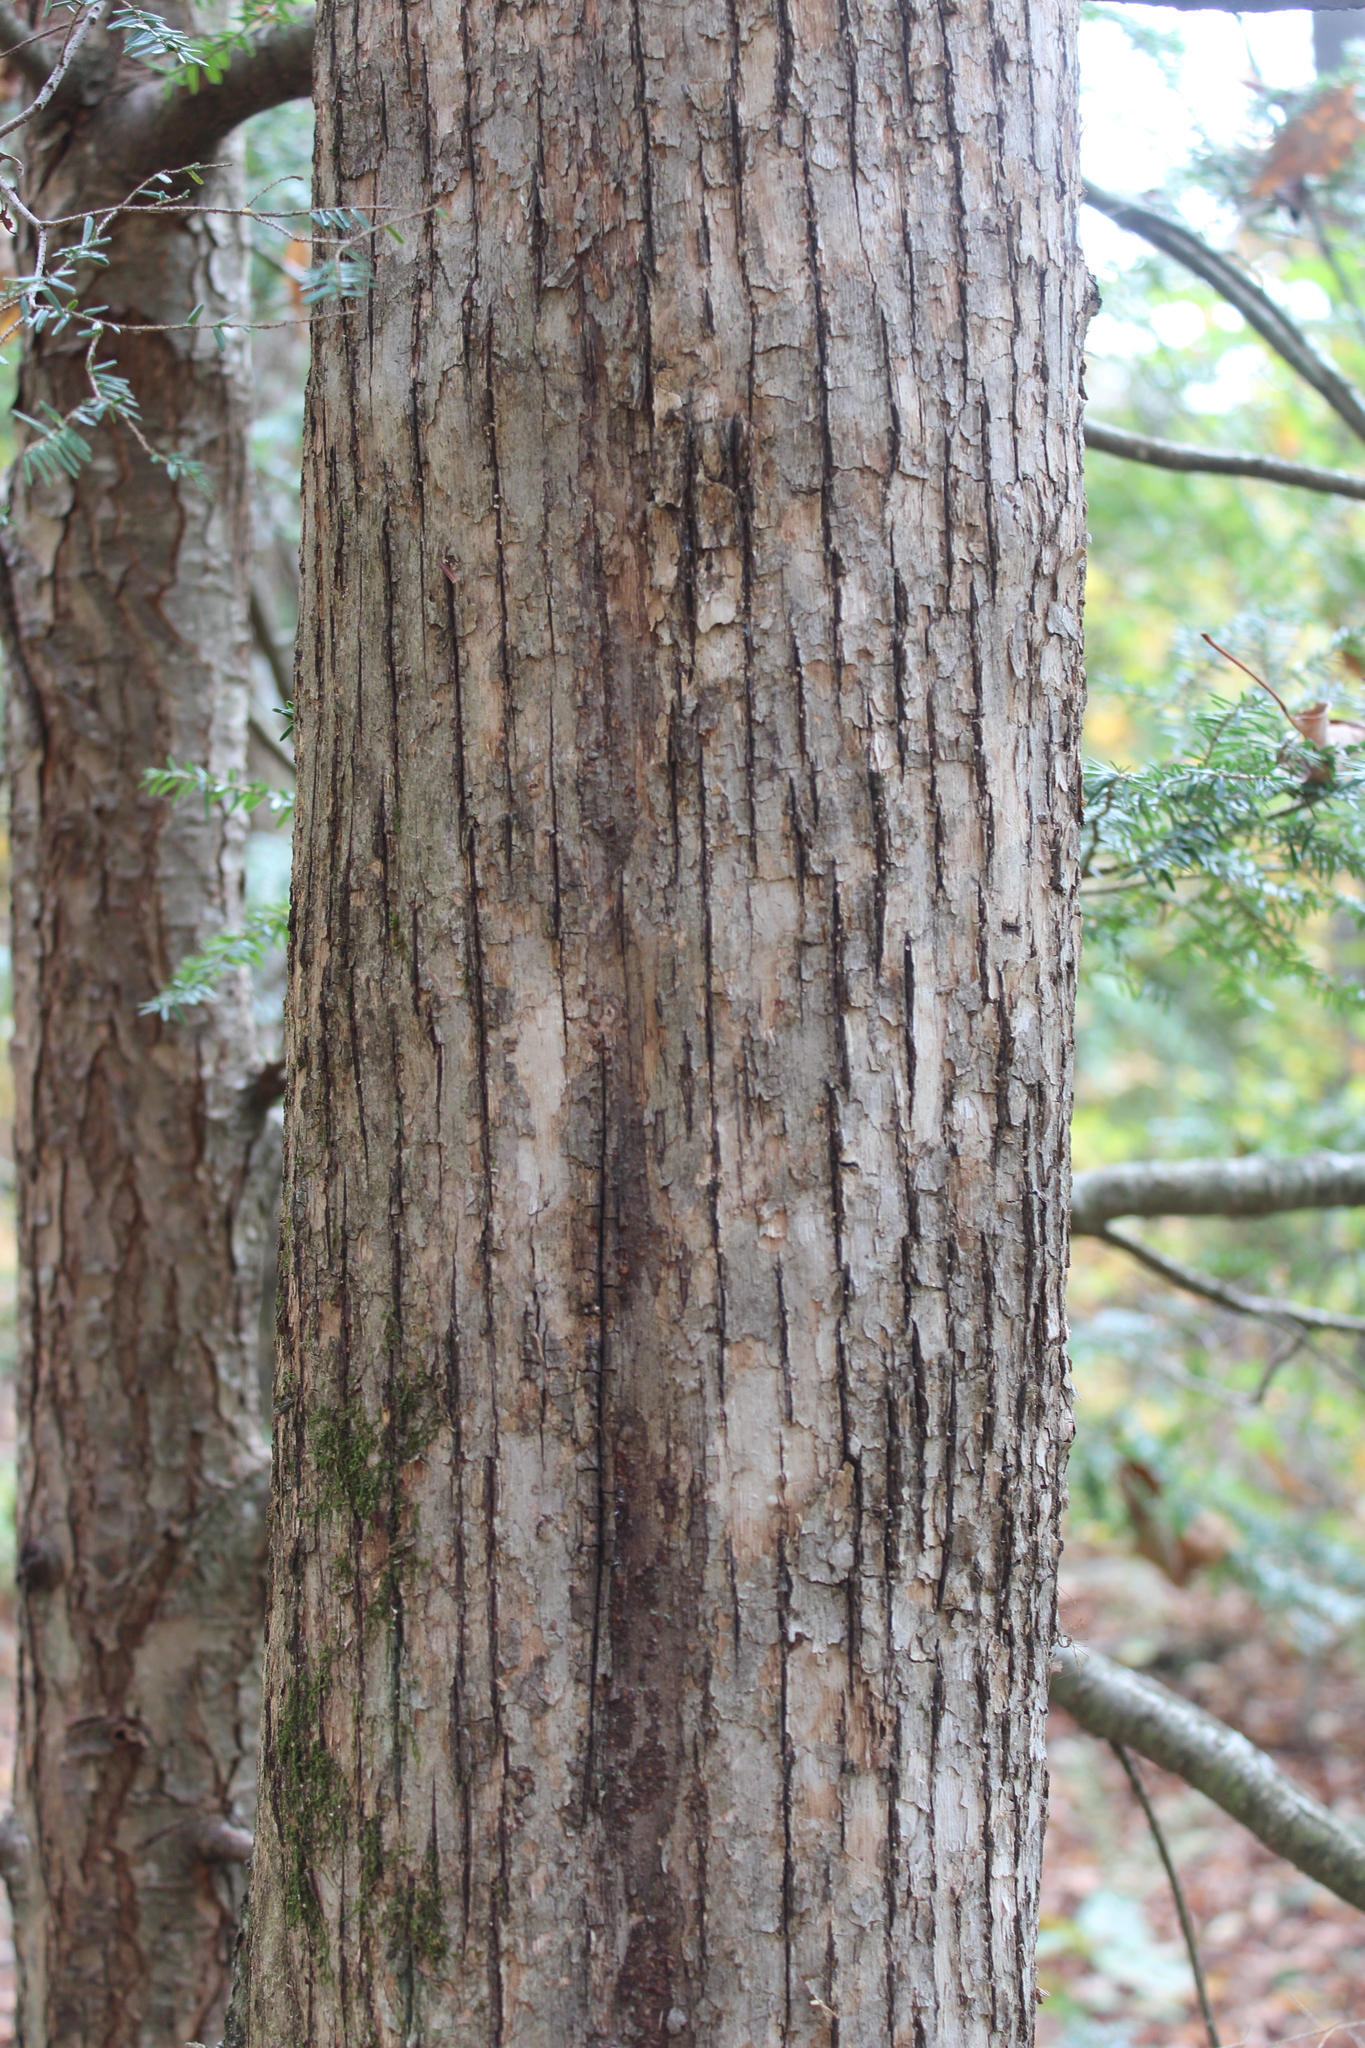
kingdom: Plantae
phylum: Tracheophyta
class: Magnoliopsida
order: Fagales
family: Betulaceae
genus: Ostrya
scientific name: Ostrya virginiana
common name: Ironwood
